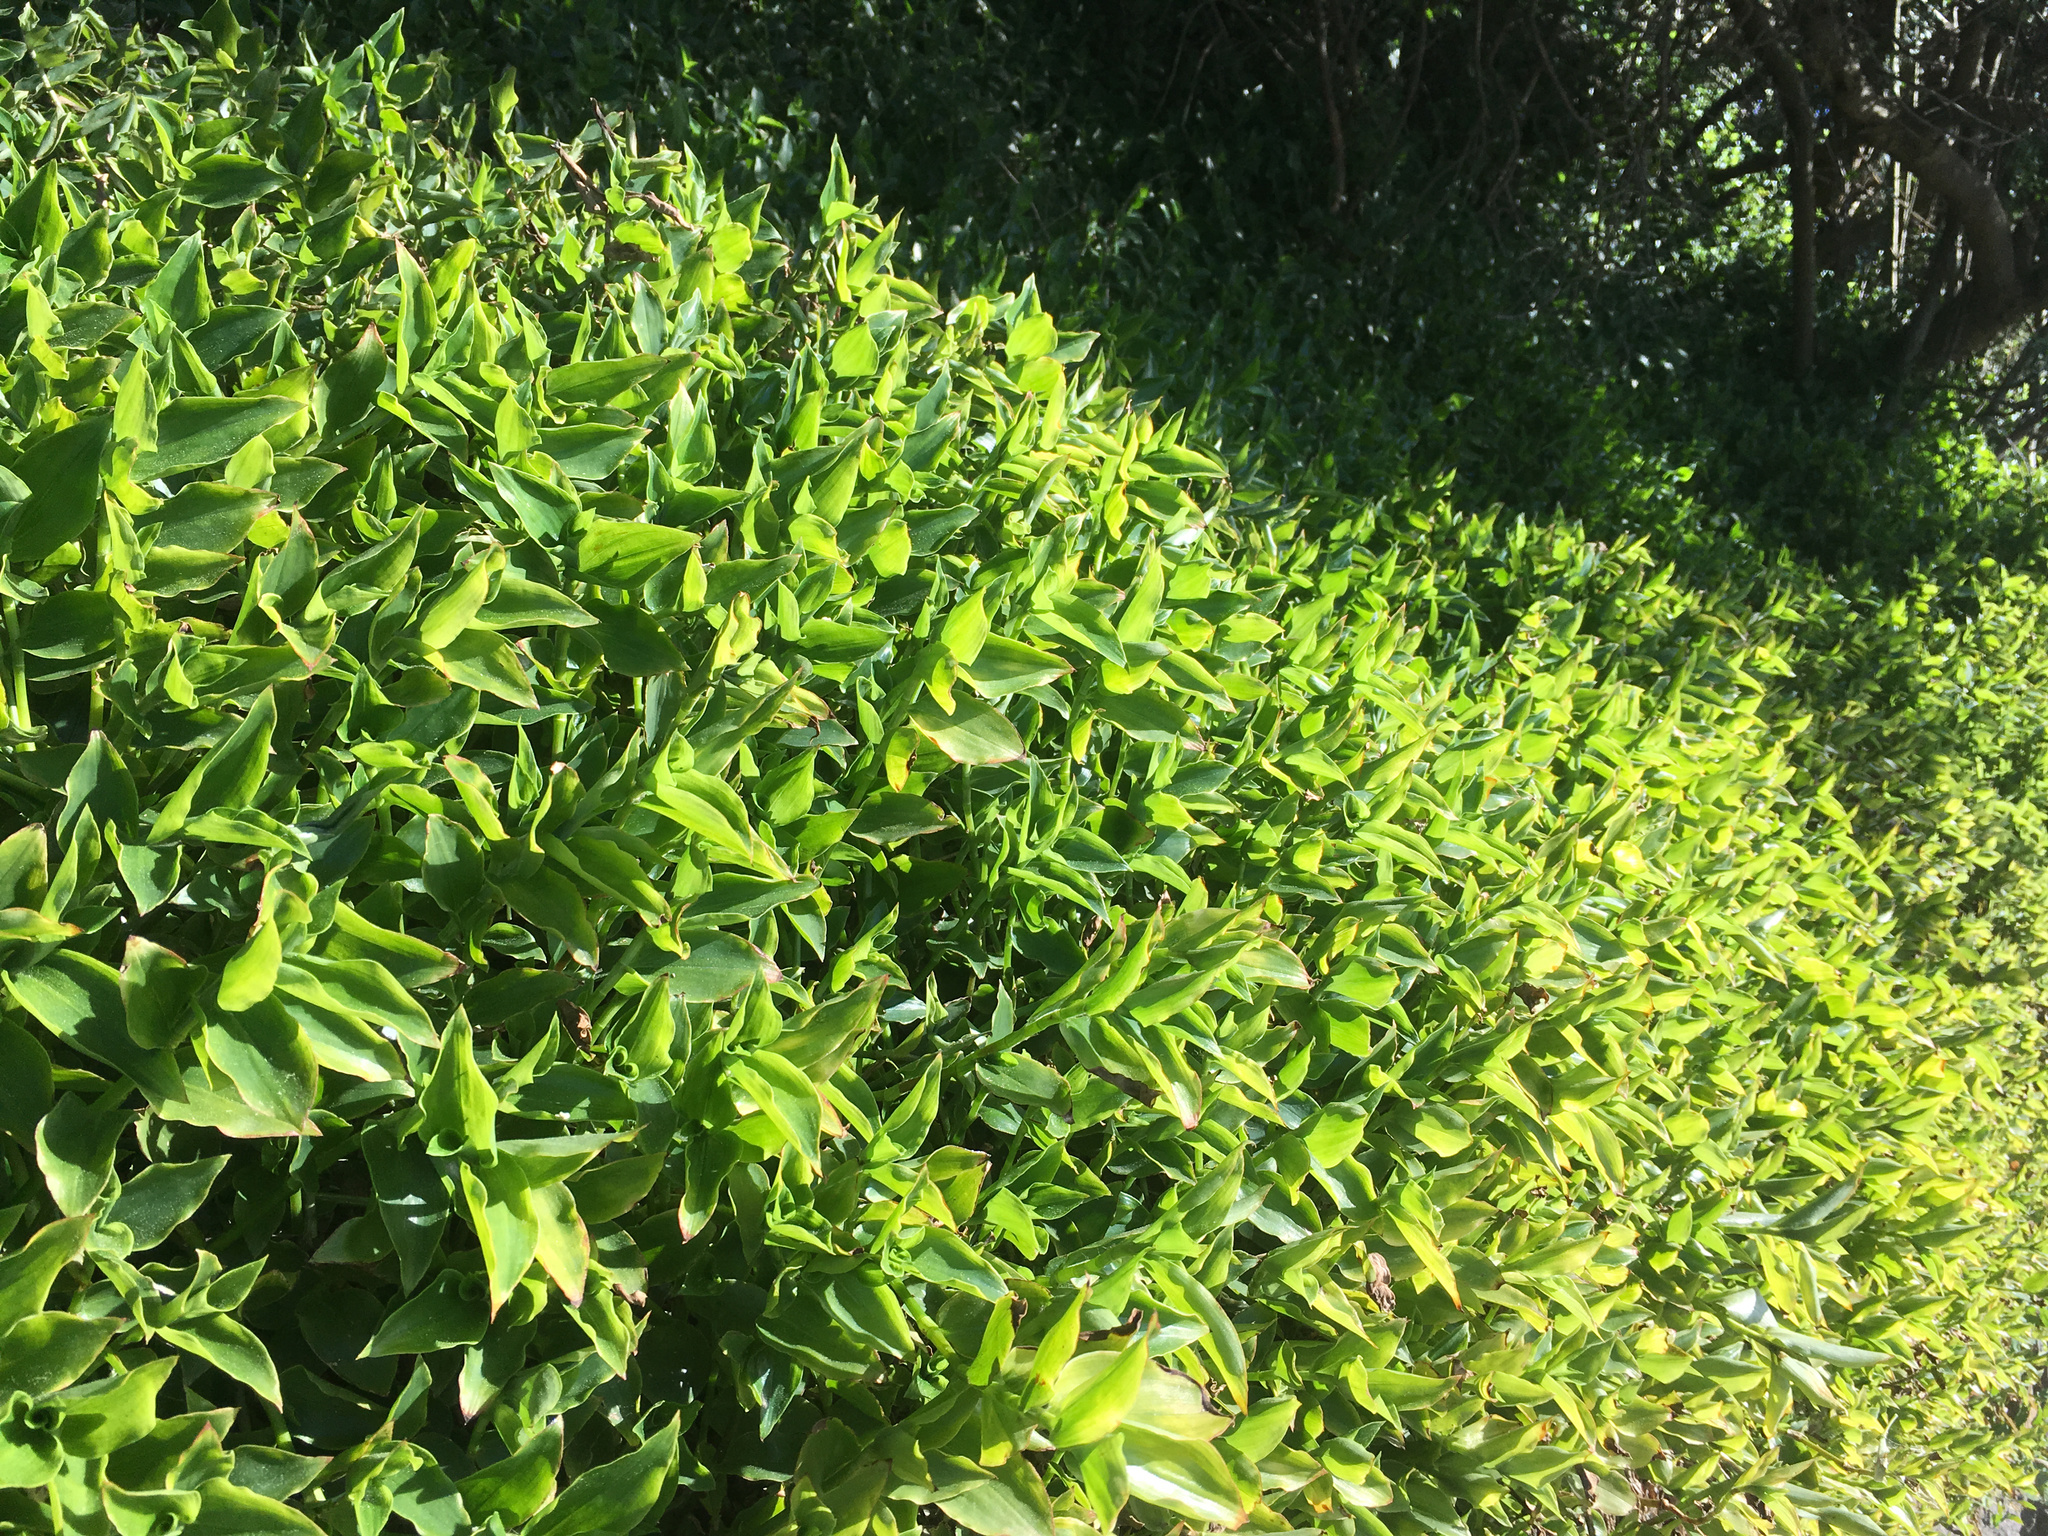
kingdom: Plantae
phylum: Tracheophyta
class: Liliopsida
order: Commelinales
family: Commelinaceae
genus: Tradescantia
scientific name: Tradescantia fluminensis
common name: Wandering-jew
